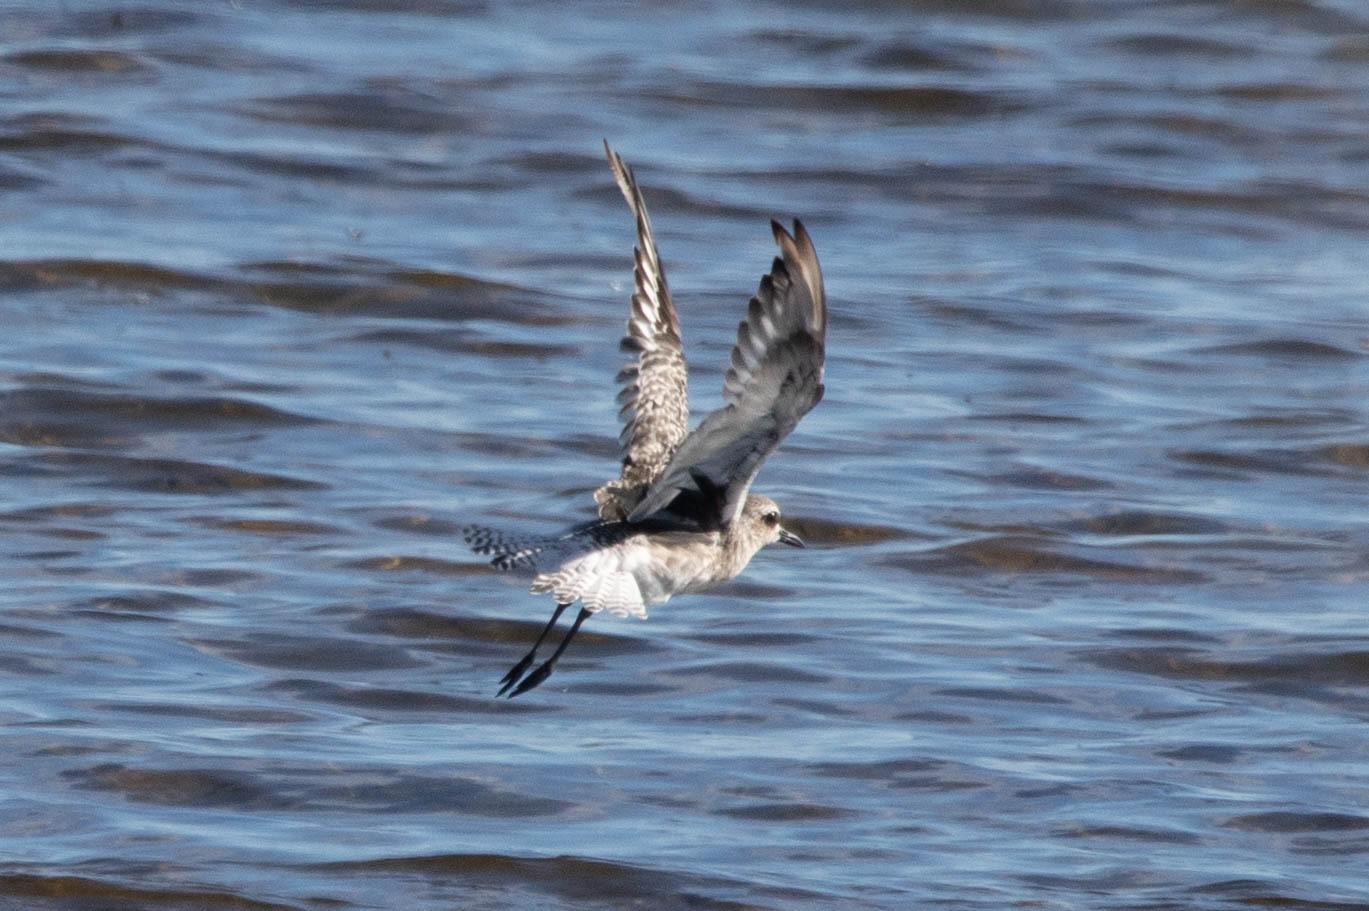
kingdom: Animalia
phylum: Chordata
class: Aves
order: Charadriiformes
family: Charadriidae
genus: Pluvialis
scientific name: Pluvialis squatarola
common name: Grey plover
